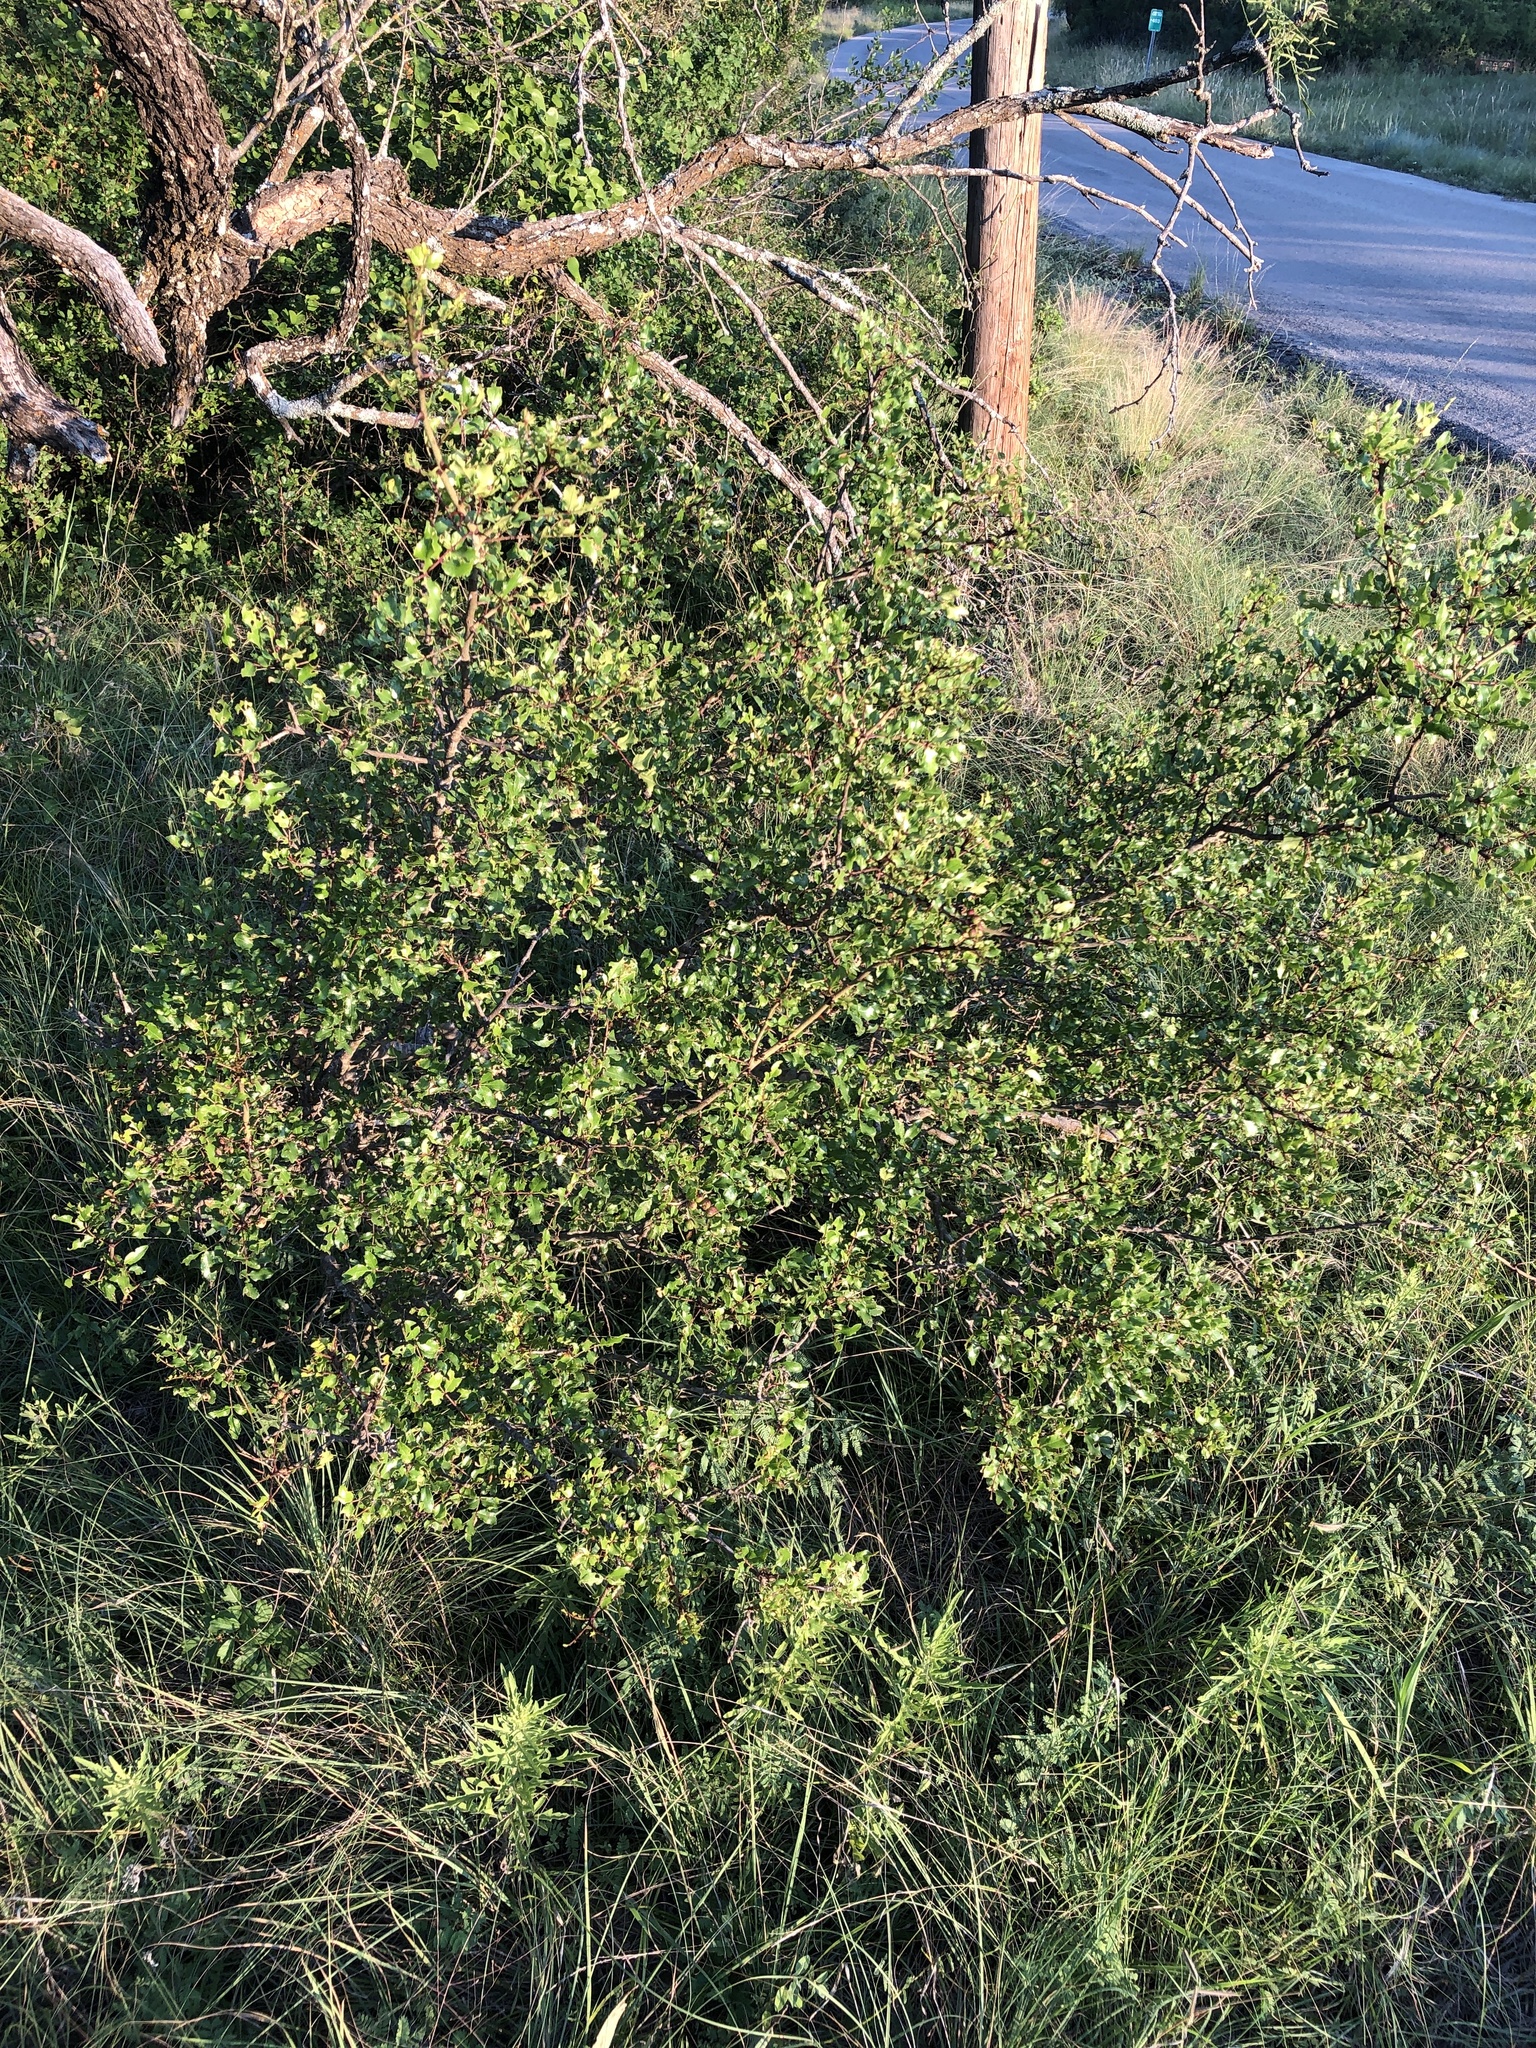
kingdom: Plantae
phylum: Tracheophyta
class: Magnoliopsida
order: Sapindales
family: Rutaceae
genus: Zanthoxylum
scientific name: Zanthoxylum clava-herculis
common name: Hercules'-club
